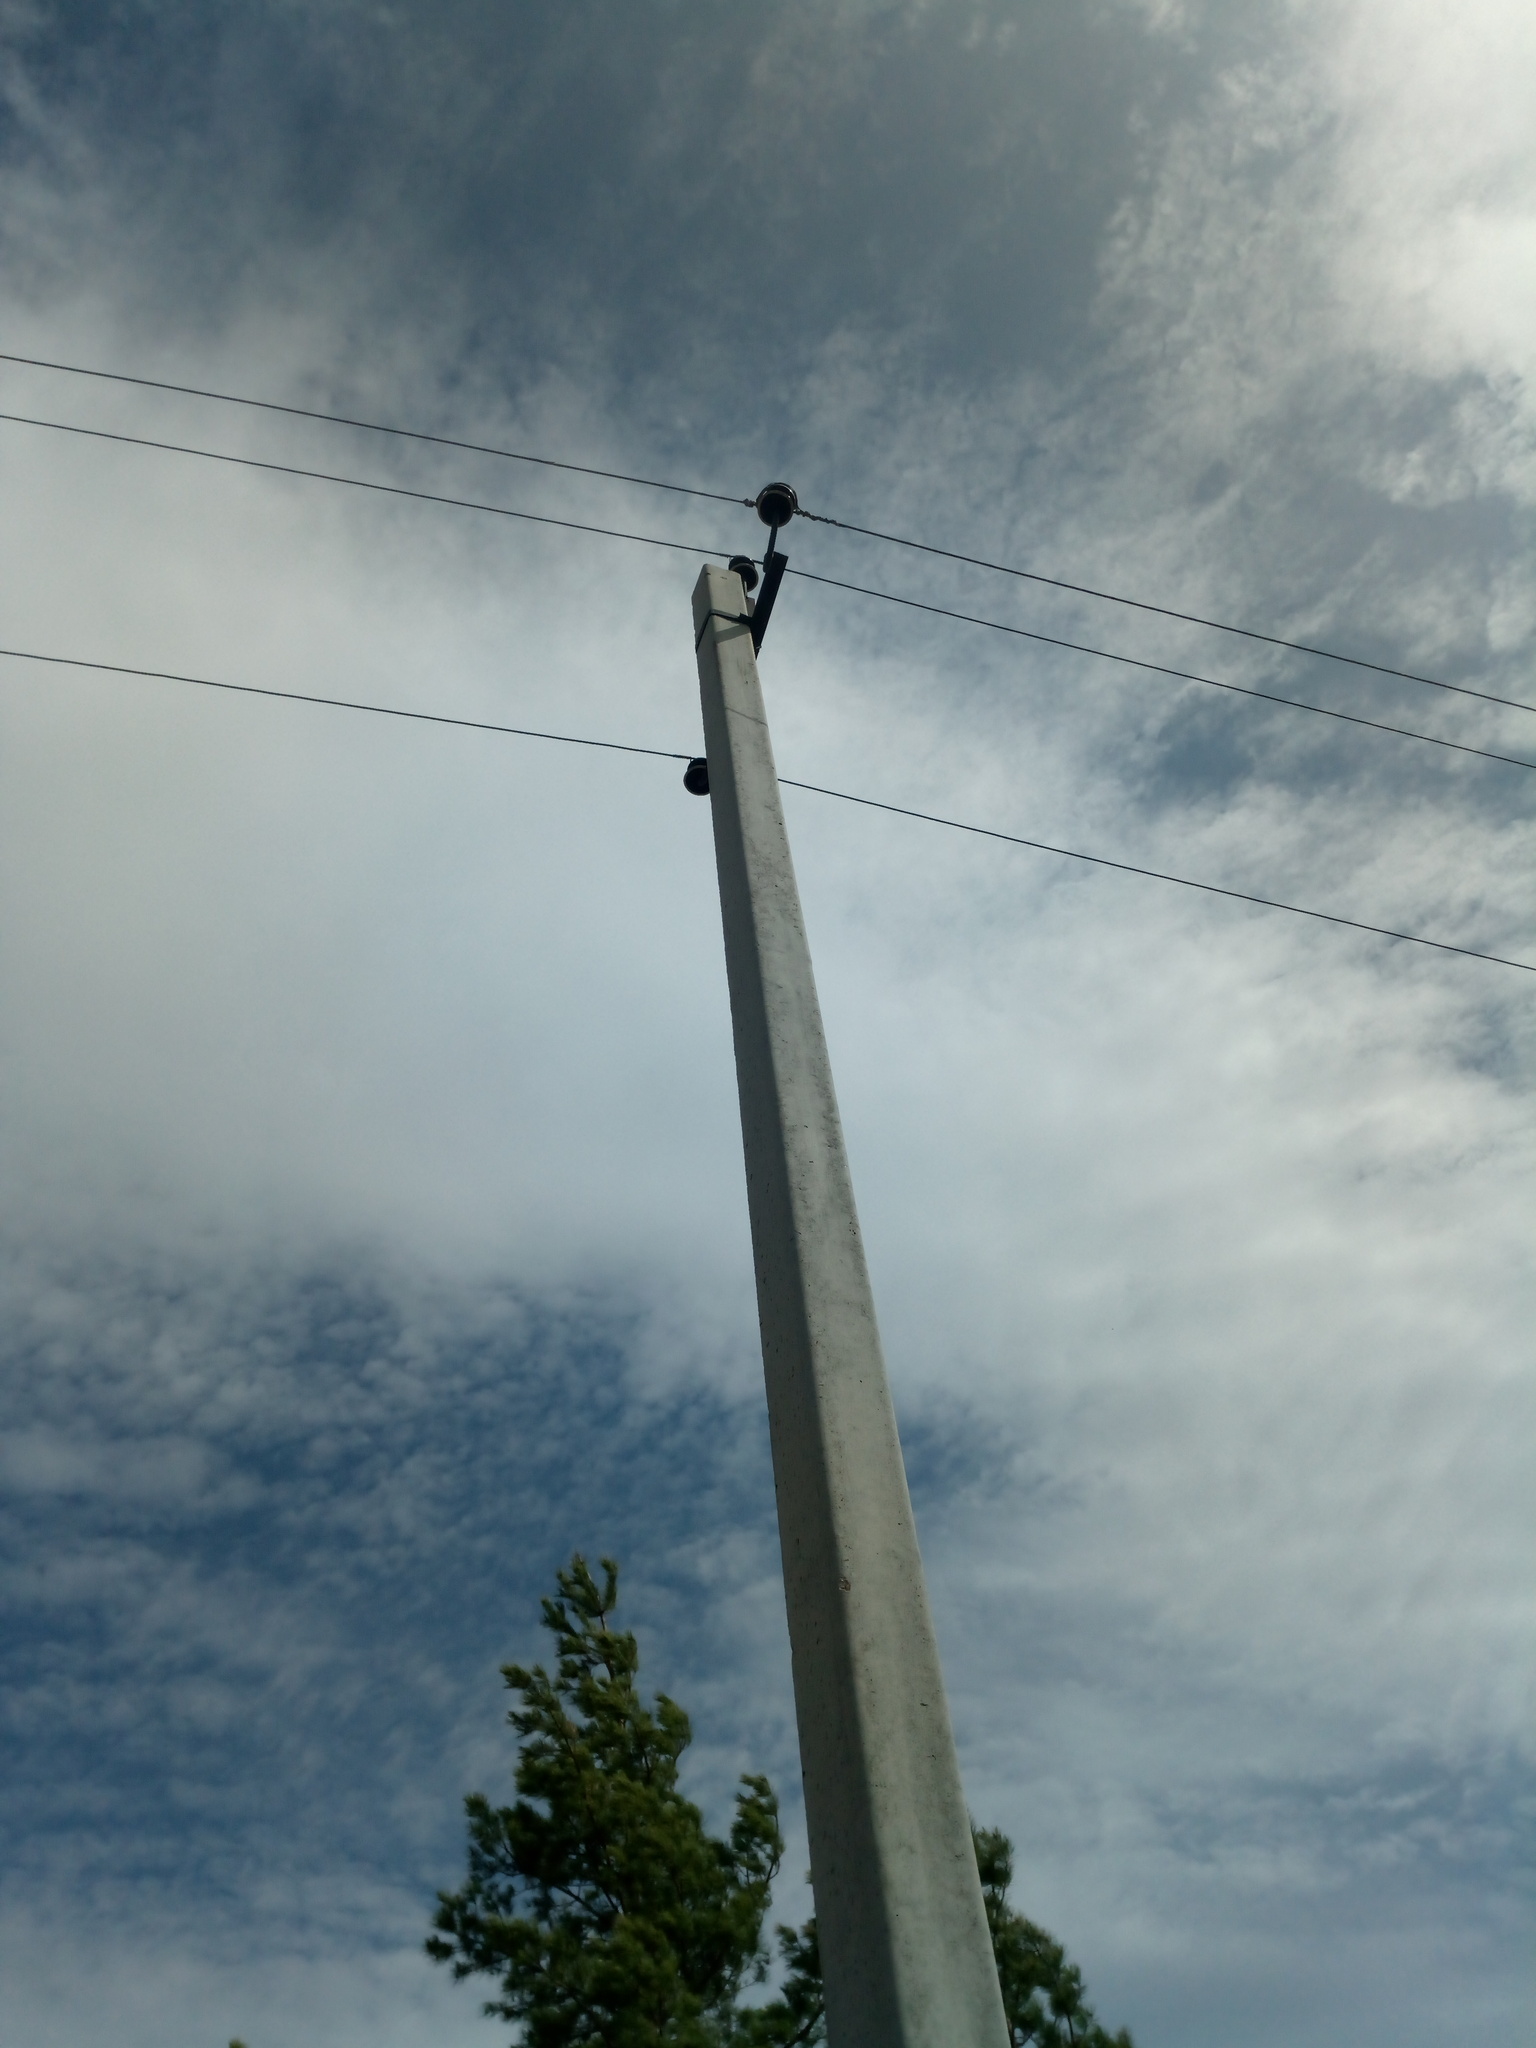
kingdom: Animalia
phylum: Chordata
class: Aves
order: Passeriformes
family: Corvidae
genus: Pica
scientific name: Pica pica
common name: Eurasian magpie
